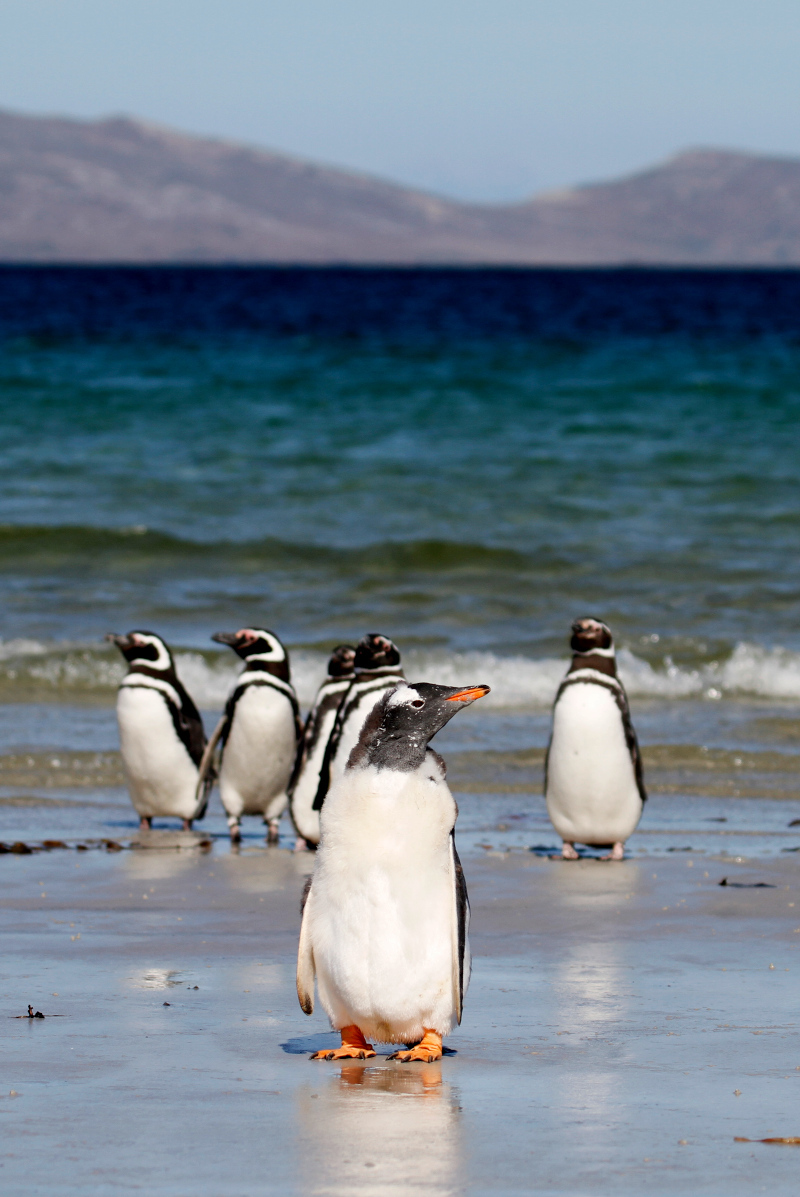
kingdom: Animalia
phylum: Chordata
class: Aves
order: Sphenisciformes
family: Spheniscidae
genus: Pygoscelis
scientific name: Pygoscelis papua
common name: Gentoo penguin
